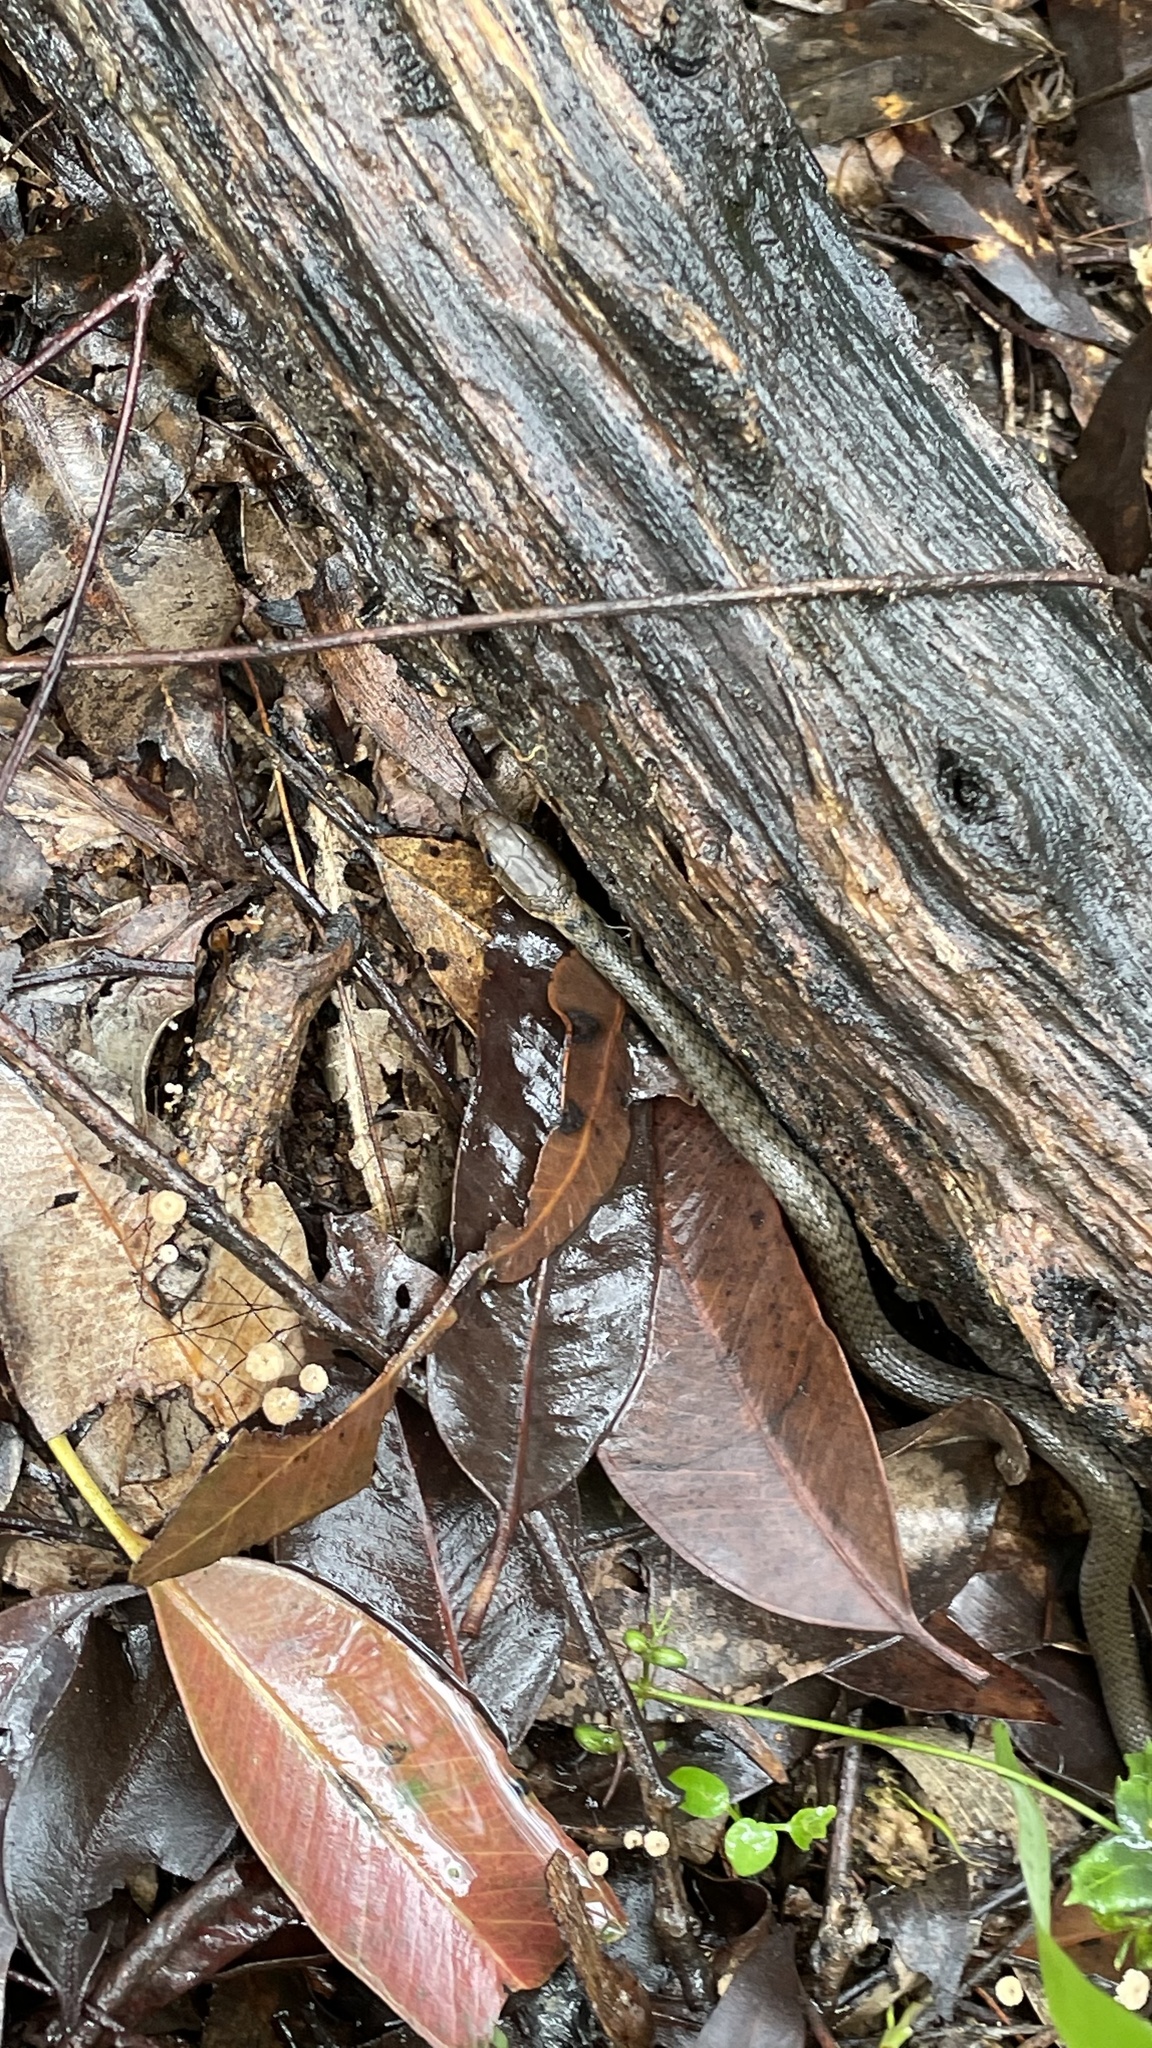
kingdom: Animalia
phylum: Chordata
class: Squamata
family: Colubridae
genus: Tropidonophis
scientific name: Tropidonophis mairii
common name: Common keelback
